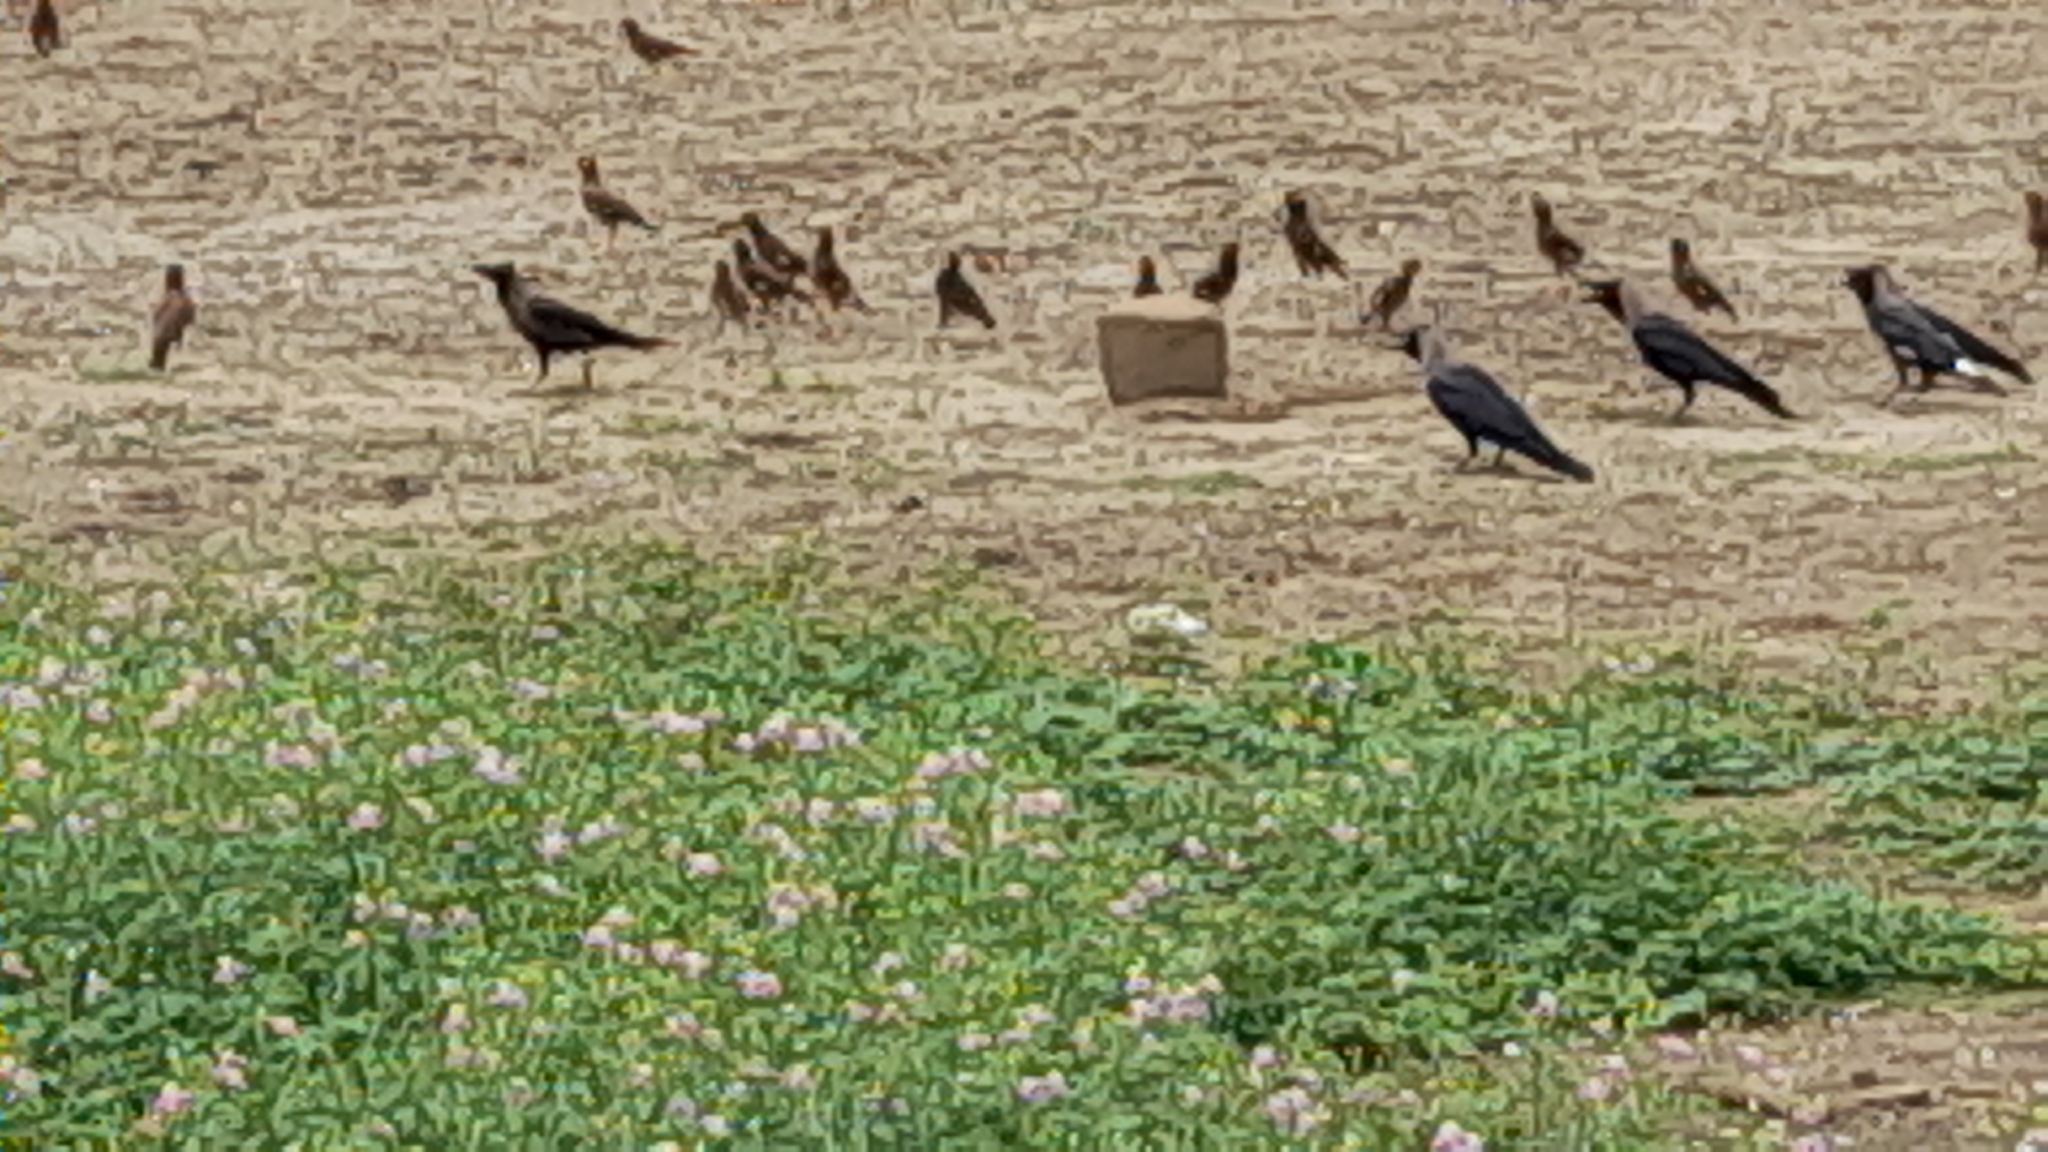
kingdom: Animalia
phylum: Chordata
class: Squamata
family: Viperidae
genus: Daboia
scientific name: Daboia russelii
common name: Western russel’s viper
